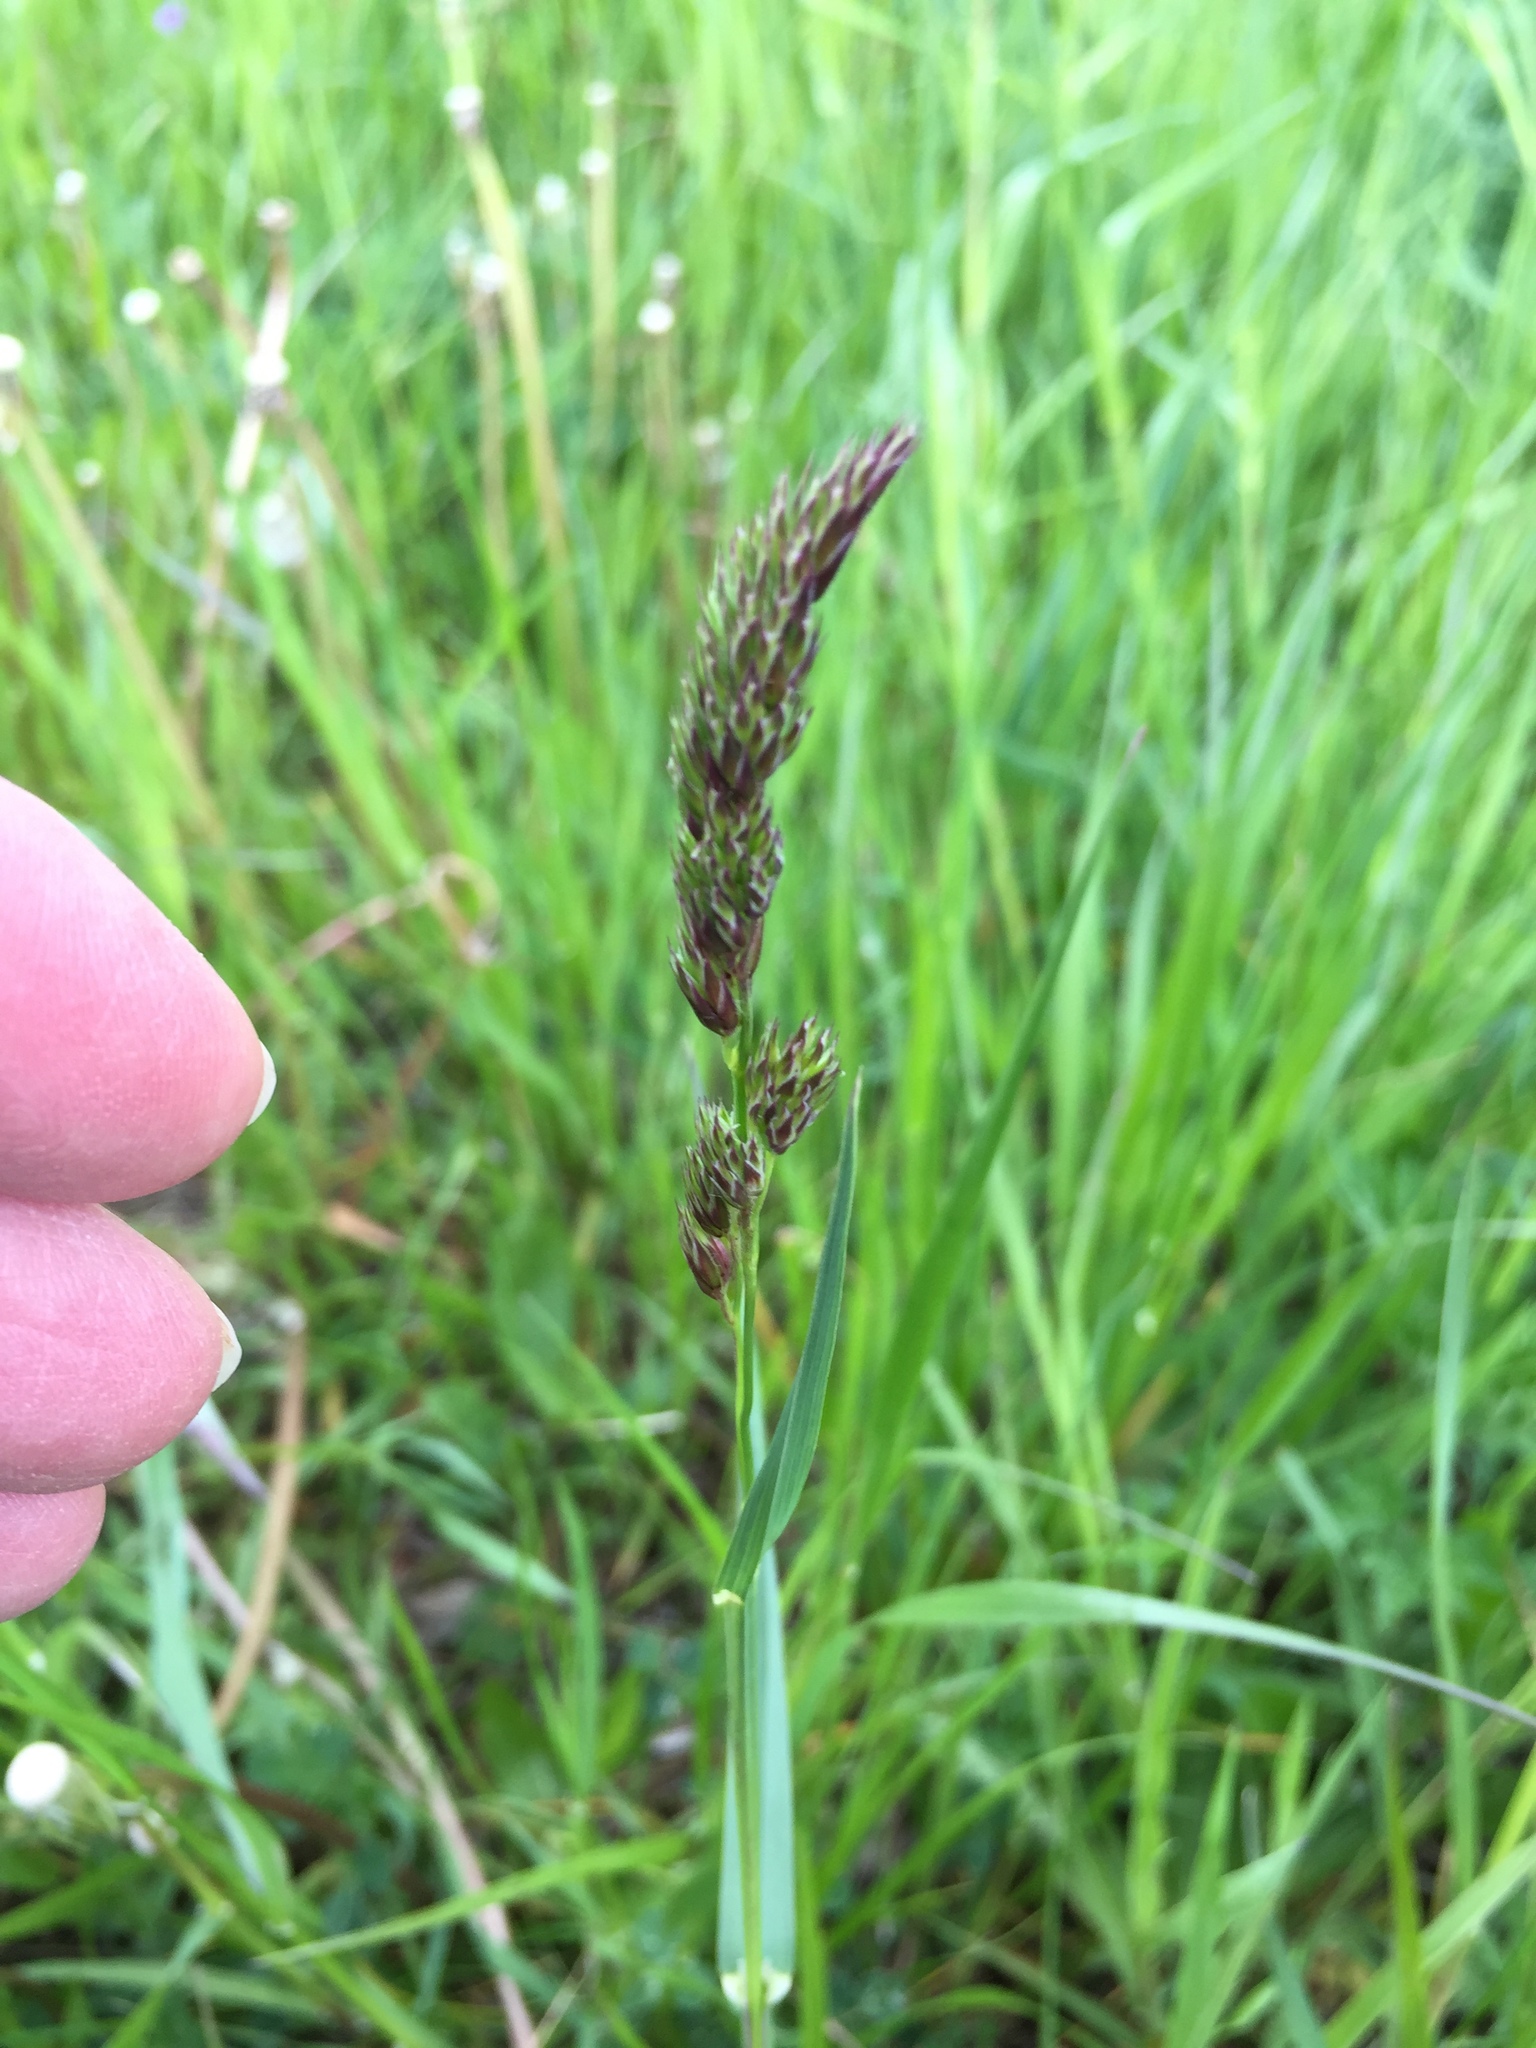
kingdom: Plantae
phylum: Tracheophyta
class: Liliopsida
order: Poales
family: Poaceae
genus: Dactylis
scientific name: Dactylis glomerata
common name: Orchardgrass
